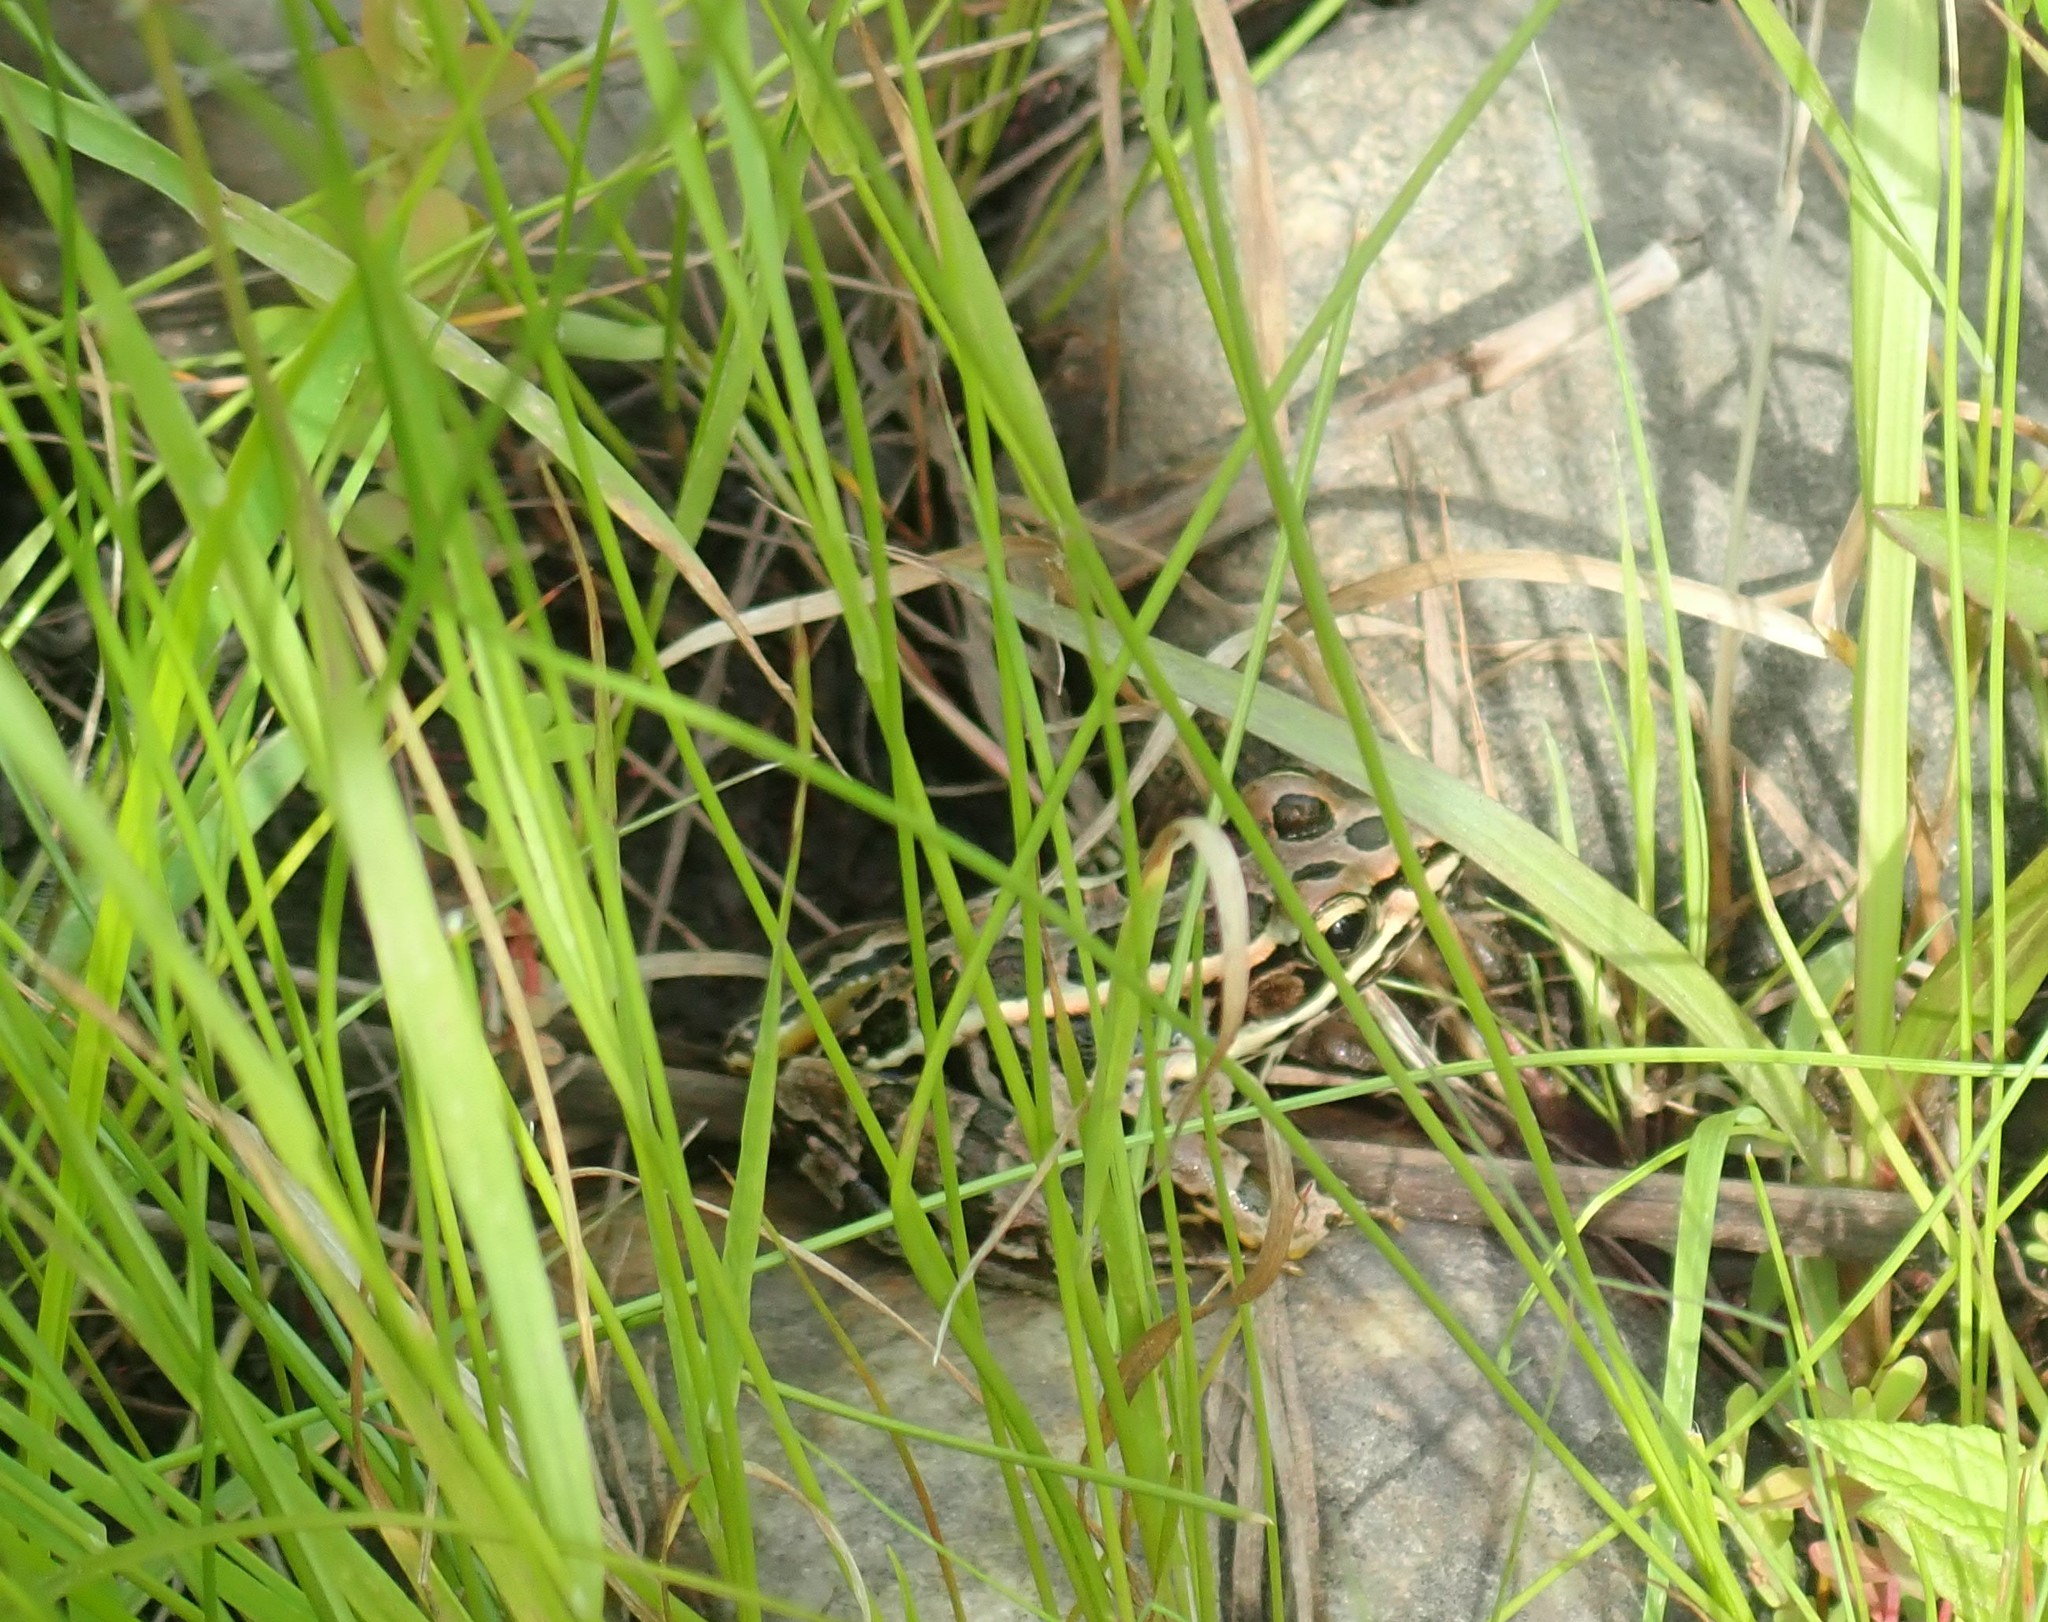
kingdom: Animalia
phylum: Chordata
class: Amphibia
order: Anura
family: Ranidae
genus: Lithobates
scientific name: Lithobates palustris
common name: Pickerel frog
